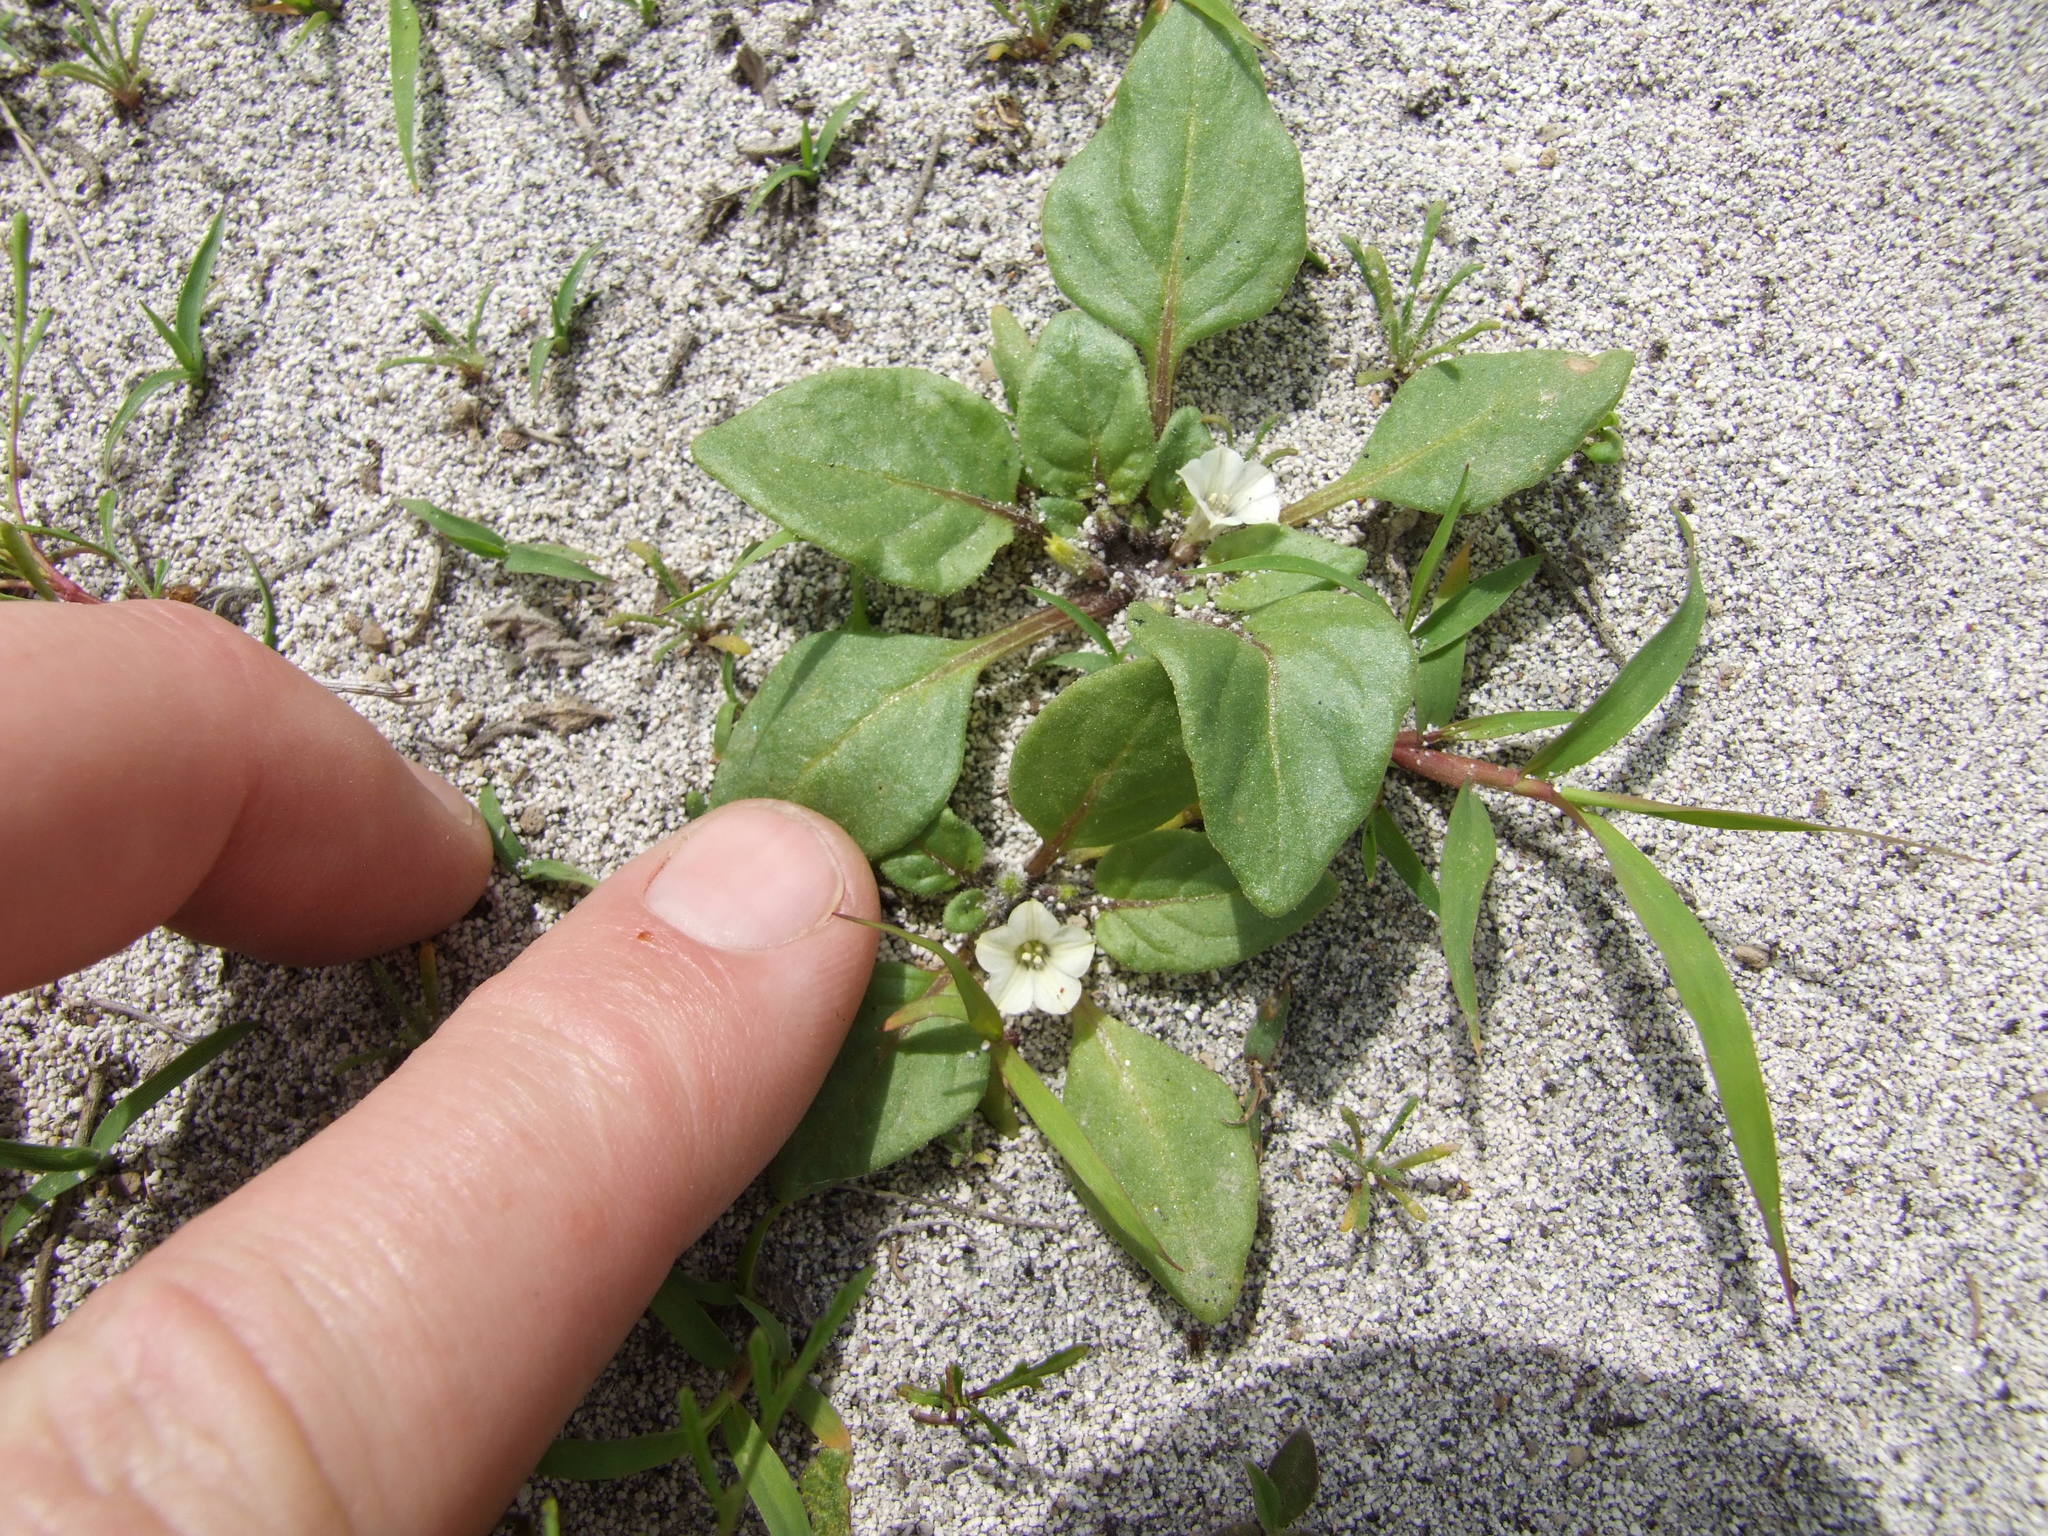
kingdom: Plantae
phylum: Tracheophyta
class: Magnoliopsida
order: Solanales
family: Solanaceae
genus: Exodeconus
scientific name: Exodeconus integrifolius
